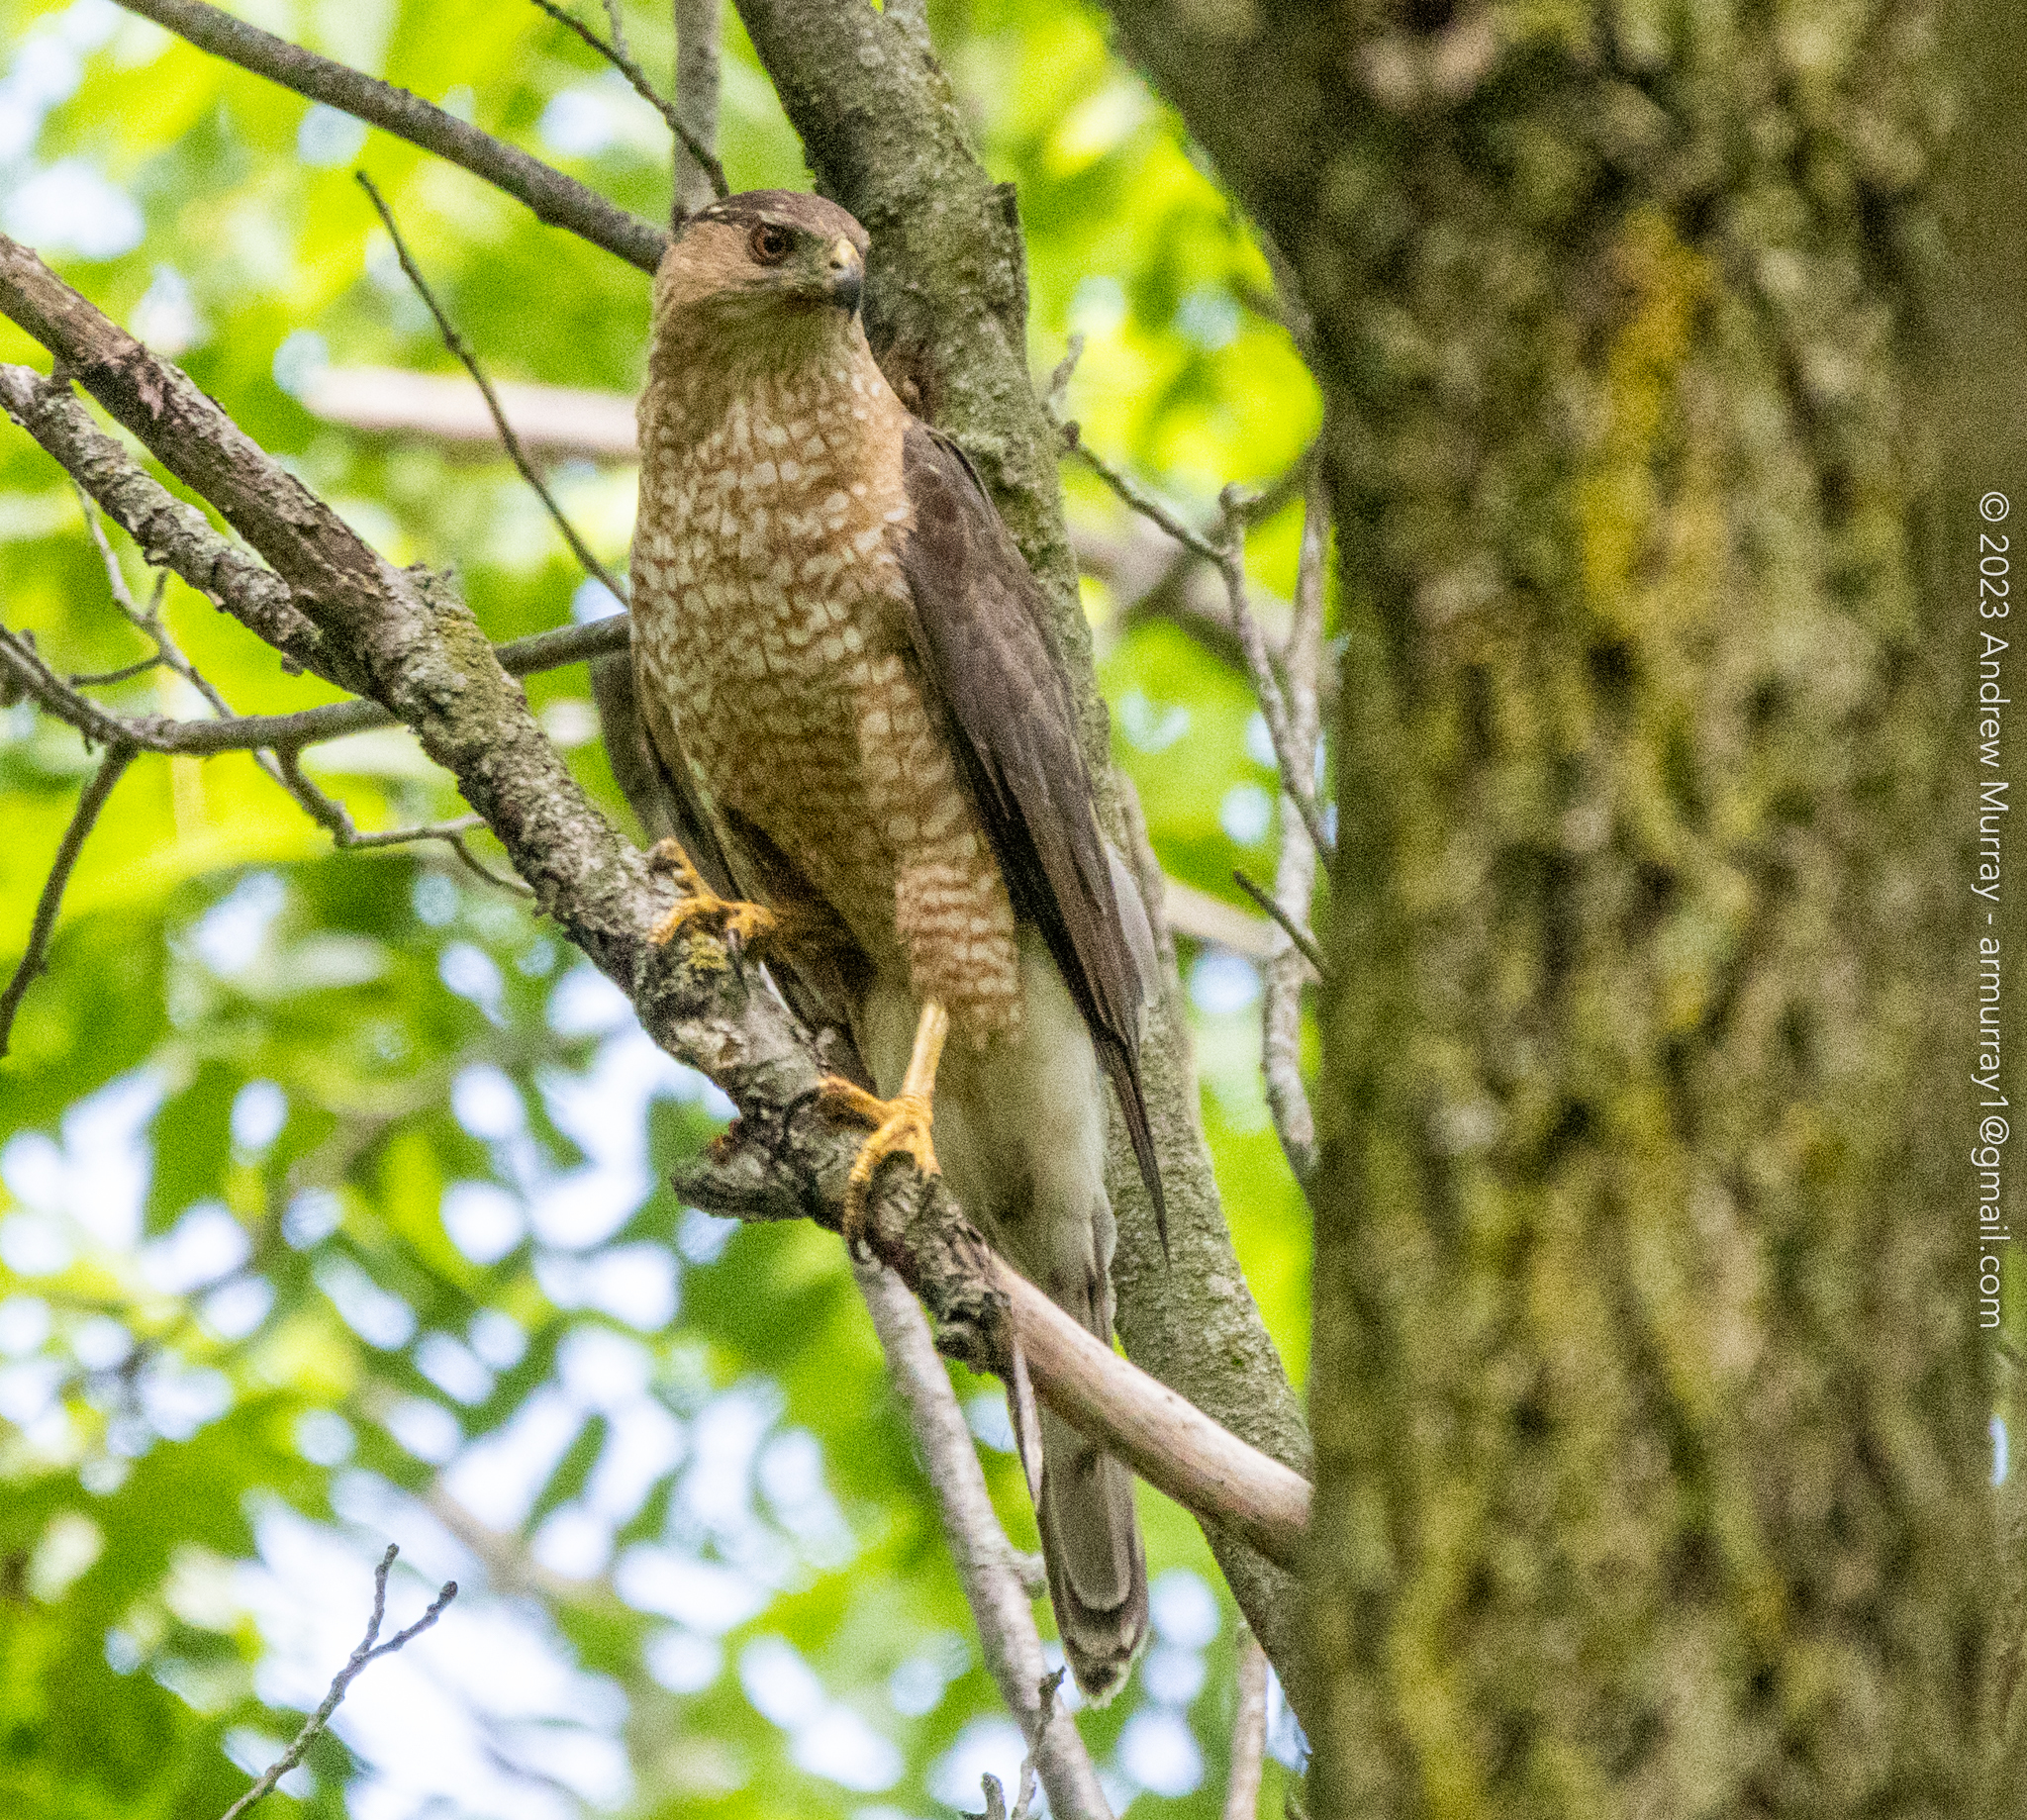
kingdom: Animalia
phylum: Chordata
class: Aves
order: Accipitriformes
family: Accipitridae
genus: Accipiter
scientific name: Accipiter cooperii
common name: Cooper's hawk
